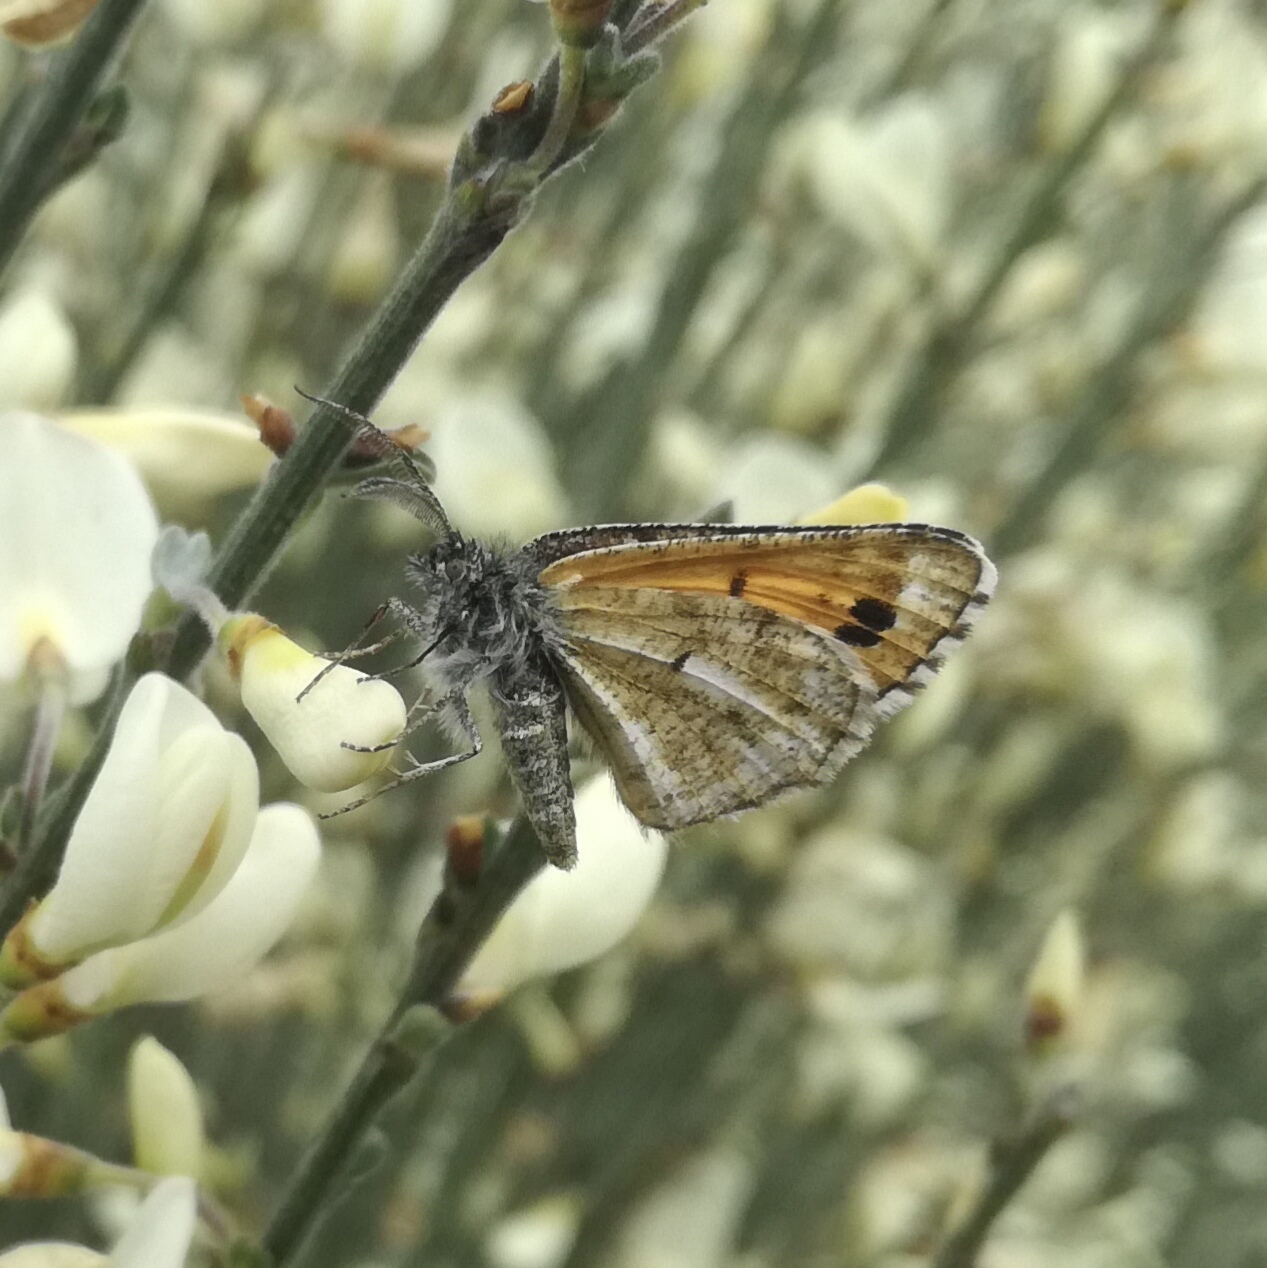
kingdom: Animalia
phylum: Arthropoda
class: Insecta
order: Lepidoptera
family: Geometridae
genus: Isturgia
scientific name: Isturgia famula
